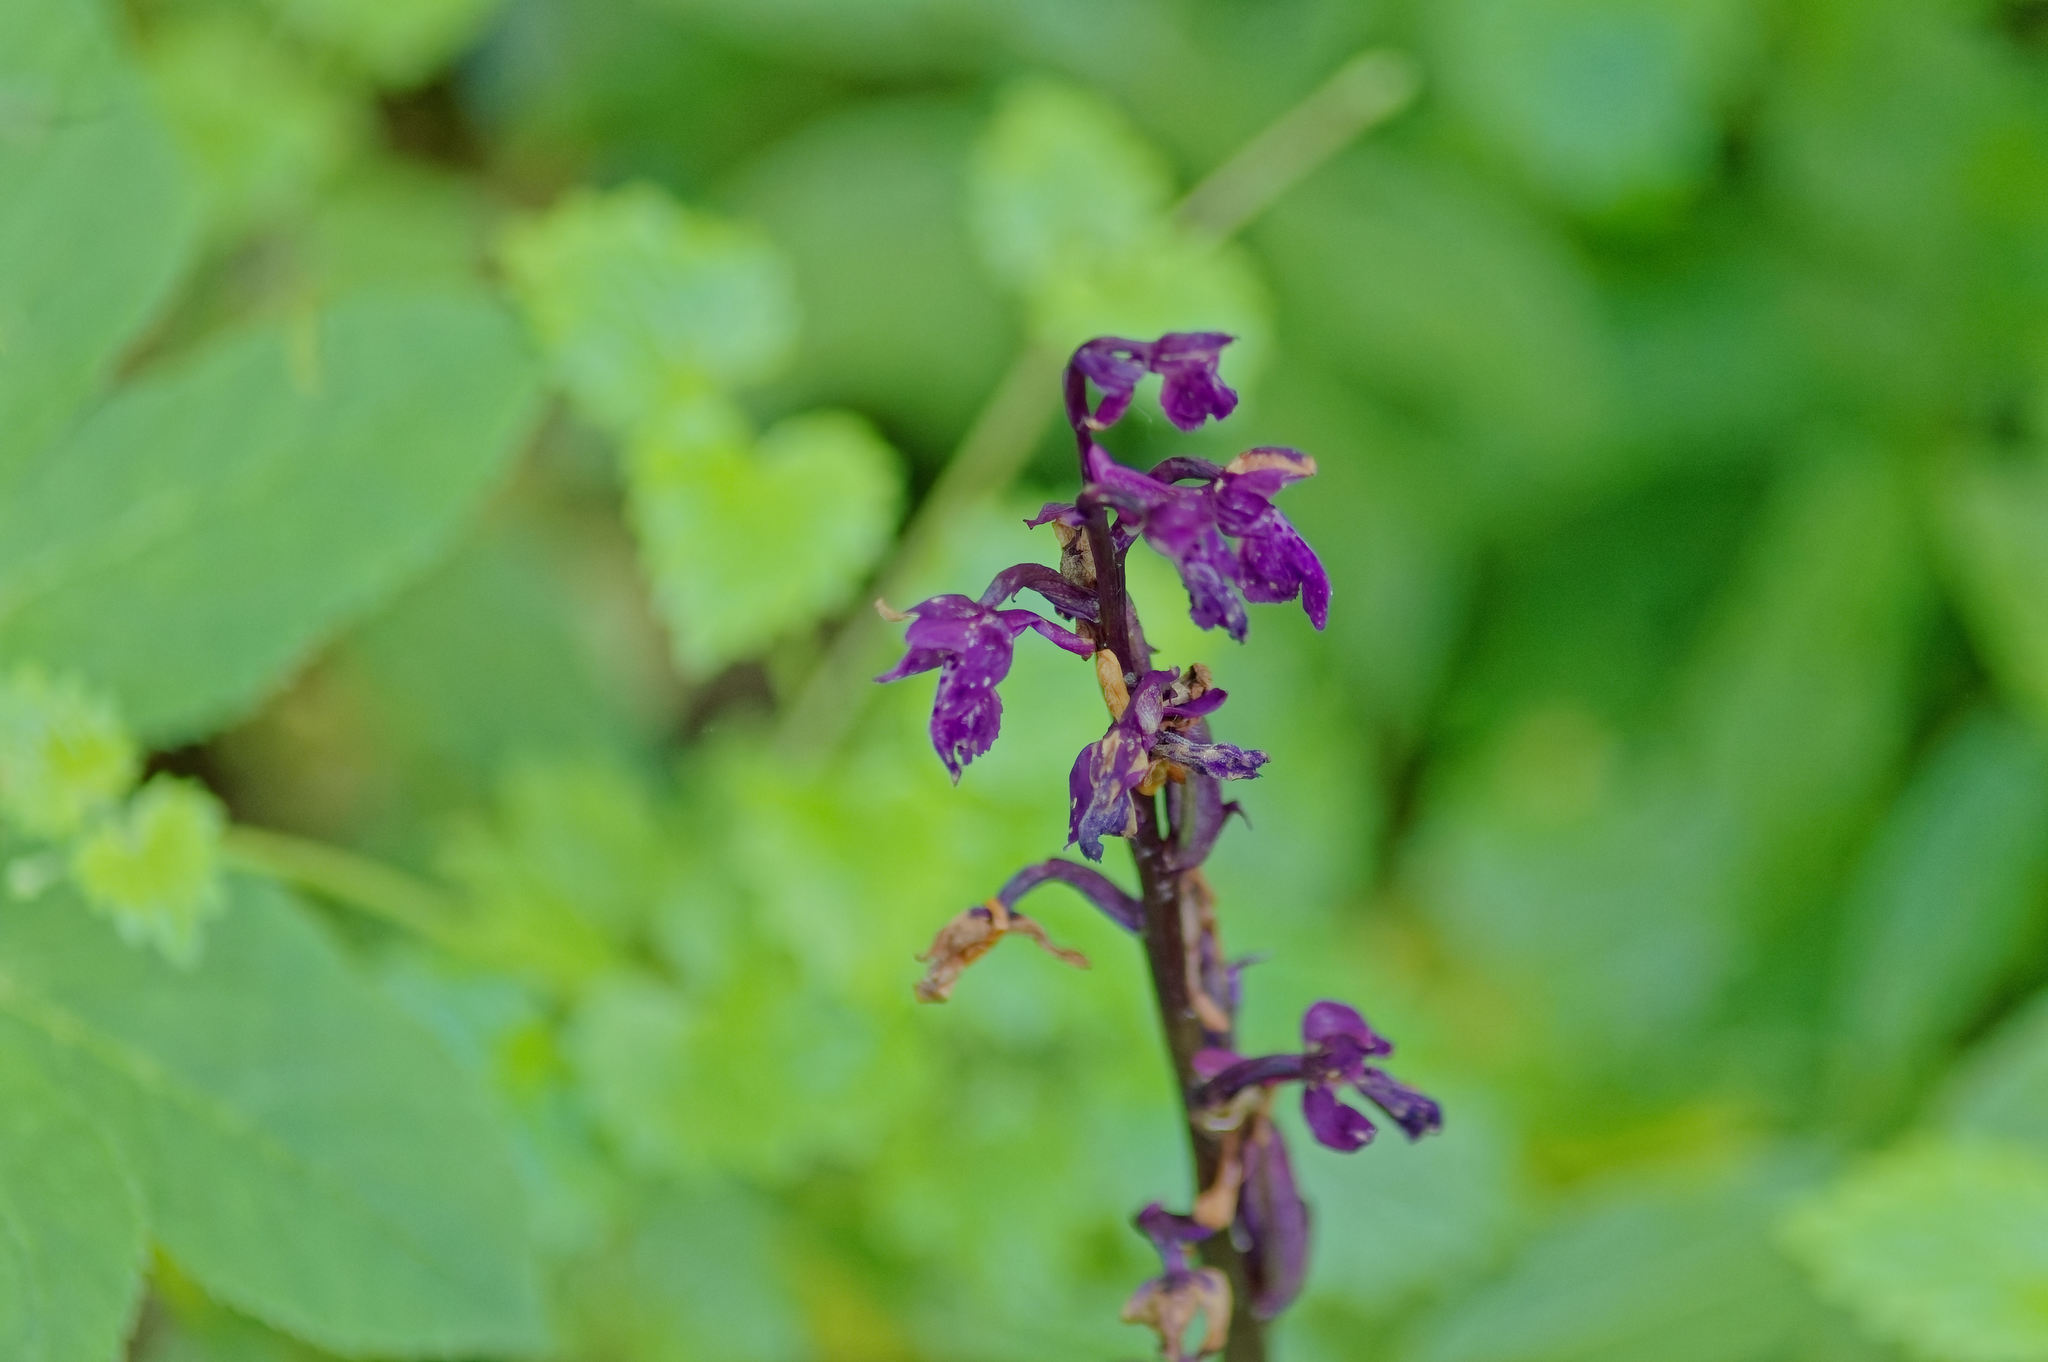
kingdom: Plantae
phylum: Tracheophyta
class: Liliopsida
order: Asparagales
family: Orchidaceae
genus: Orchis
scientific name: Orchis mascula
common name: Early-purple orchid
